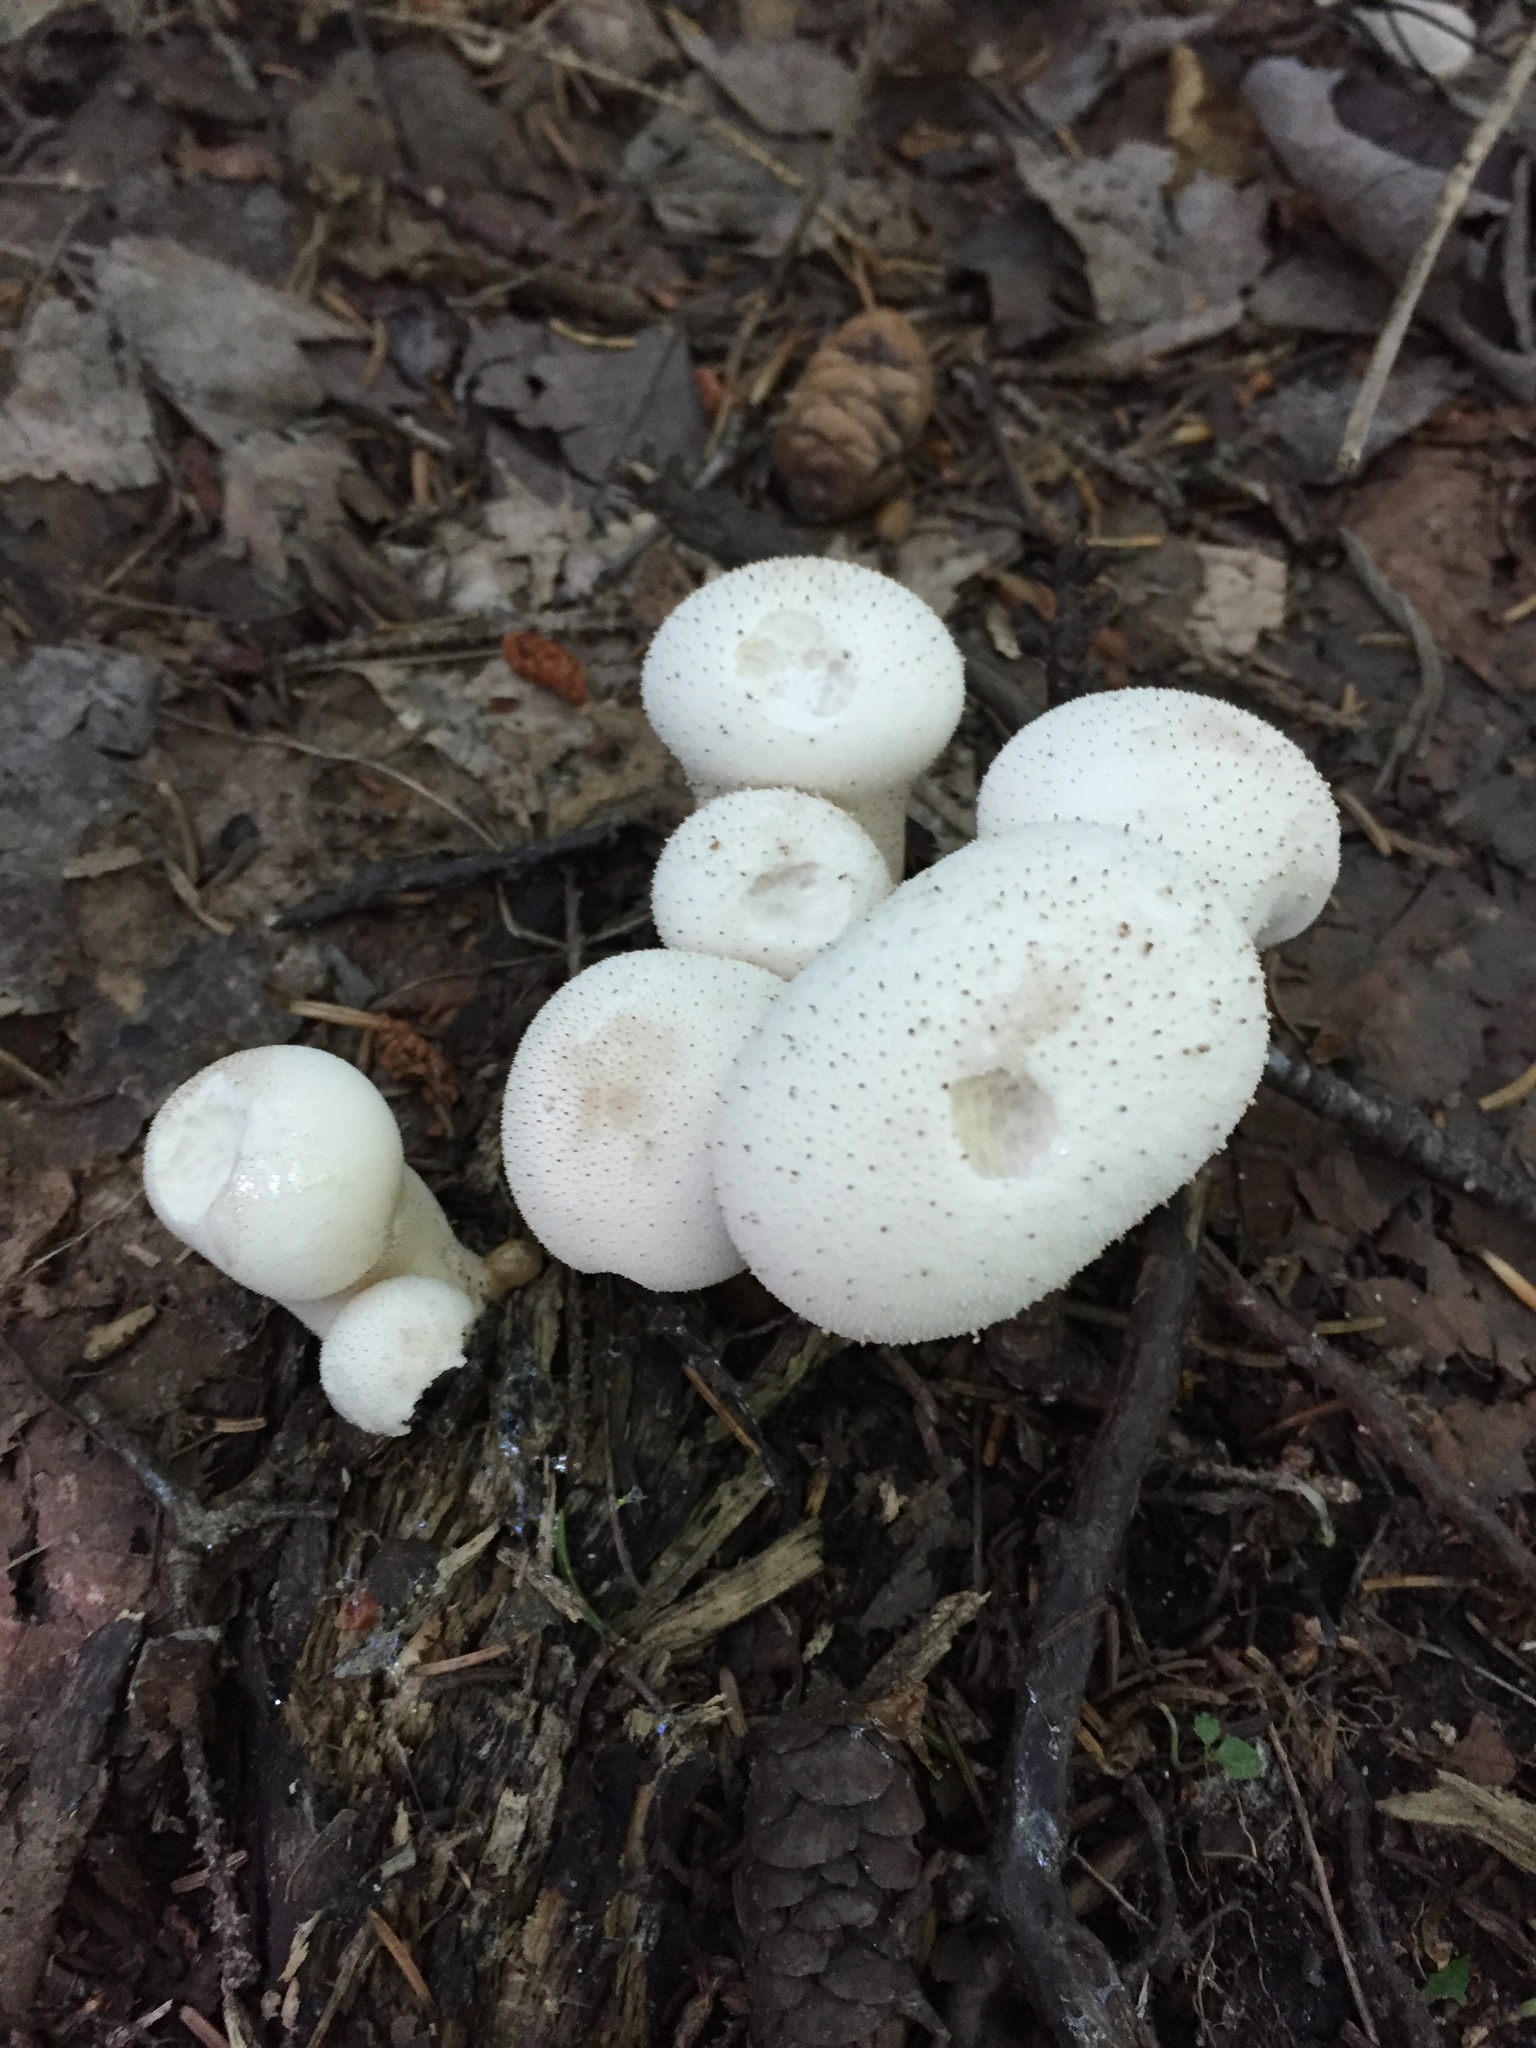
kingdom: Fungi
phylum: Basidiomycota
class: Agaricomycetes
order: Agaricales
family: Lycoperdaceae
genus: Lycoperdon
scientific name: Lycoperdon perlatum
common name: Common puffball
